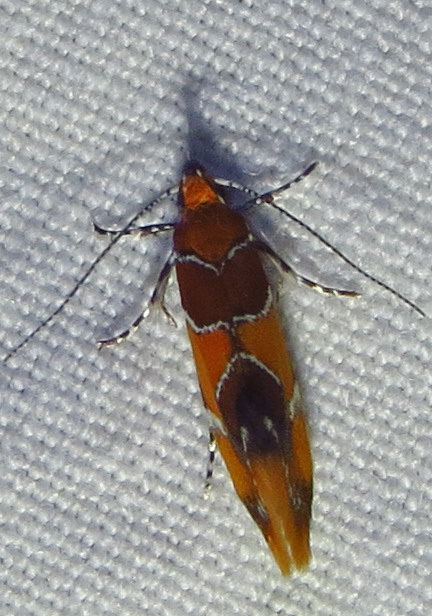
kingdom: Animalia
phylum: Arthropoda
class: Insecta
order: Lepidoptera
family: Oecophoridae
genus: Callima
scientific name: Callima argenticinctella
